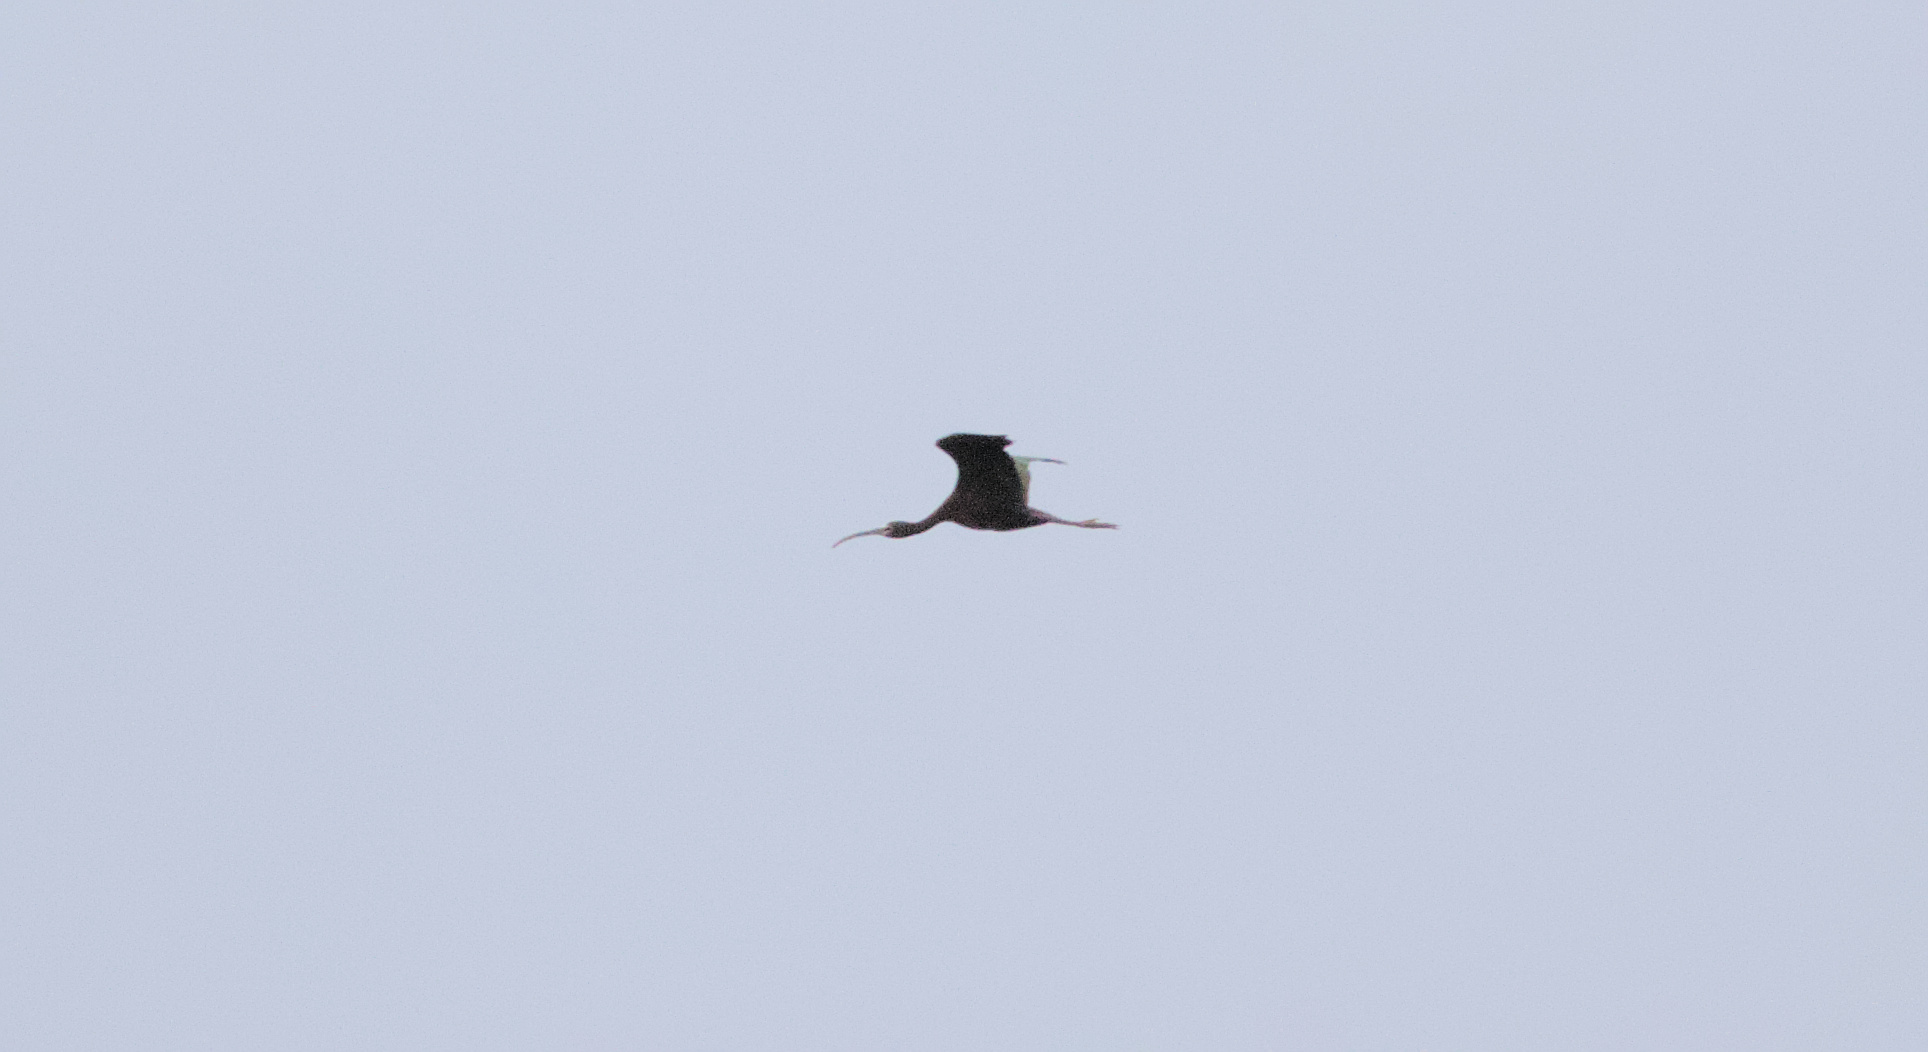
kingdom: Animalia
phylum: Chordata
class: Aves
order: Pelecaniformes
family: Threskiornithidae
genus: Plegadis
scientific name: Plegadis chihi
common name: White-faced ibis
